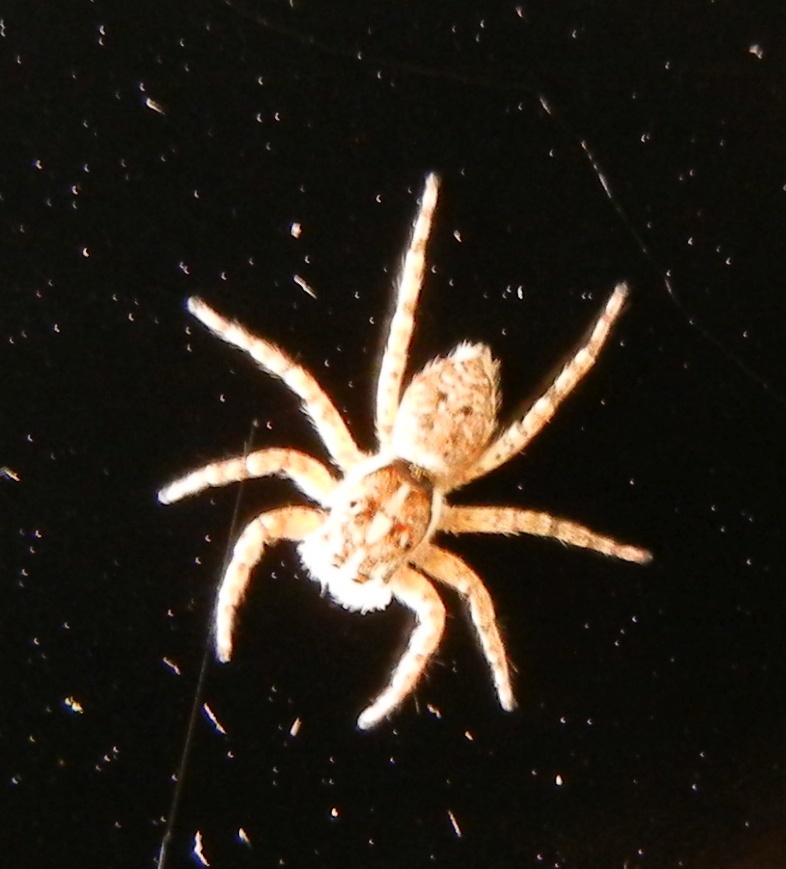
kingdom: Animalia
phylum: Arthropoda
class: Arachnida
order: Araneae
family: Salticidae
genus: Menemerus
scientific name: Menemerus semilimbatus
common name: Jumping spider
